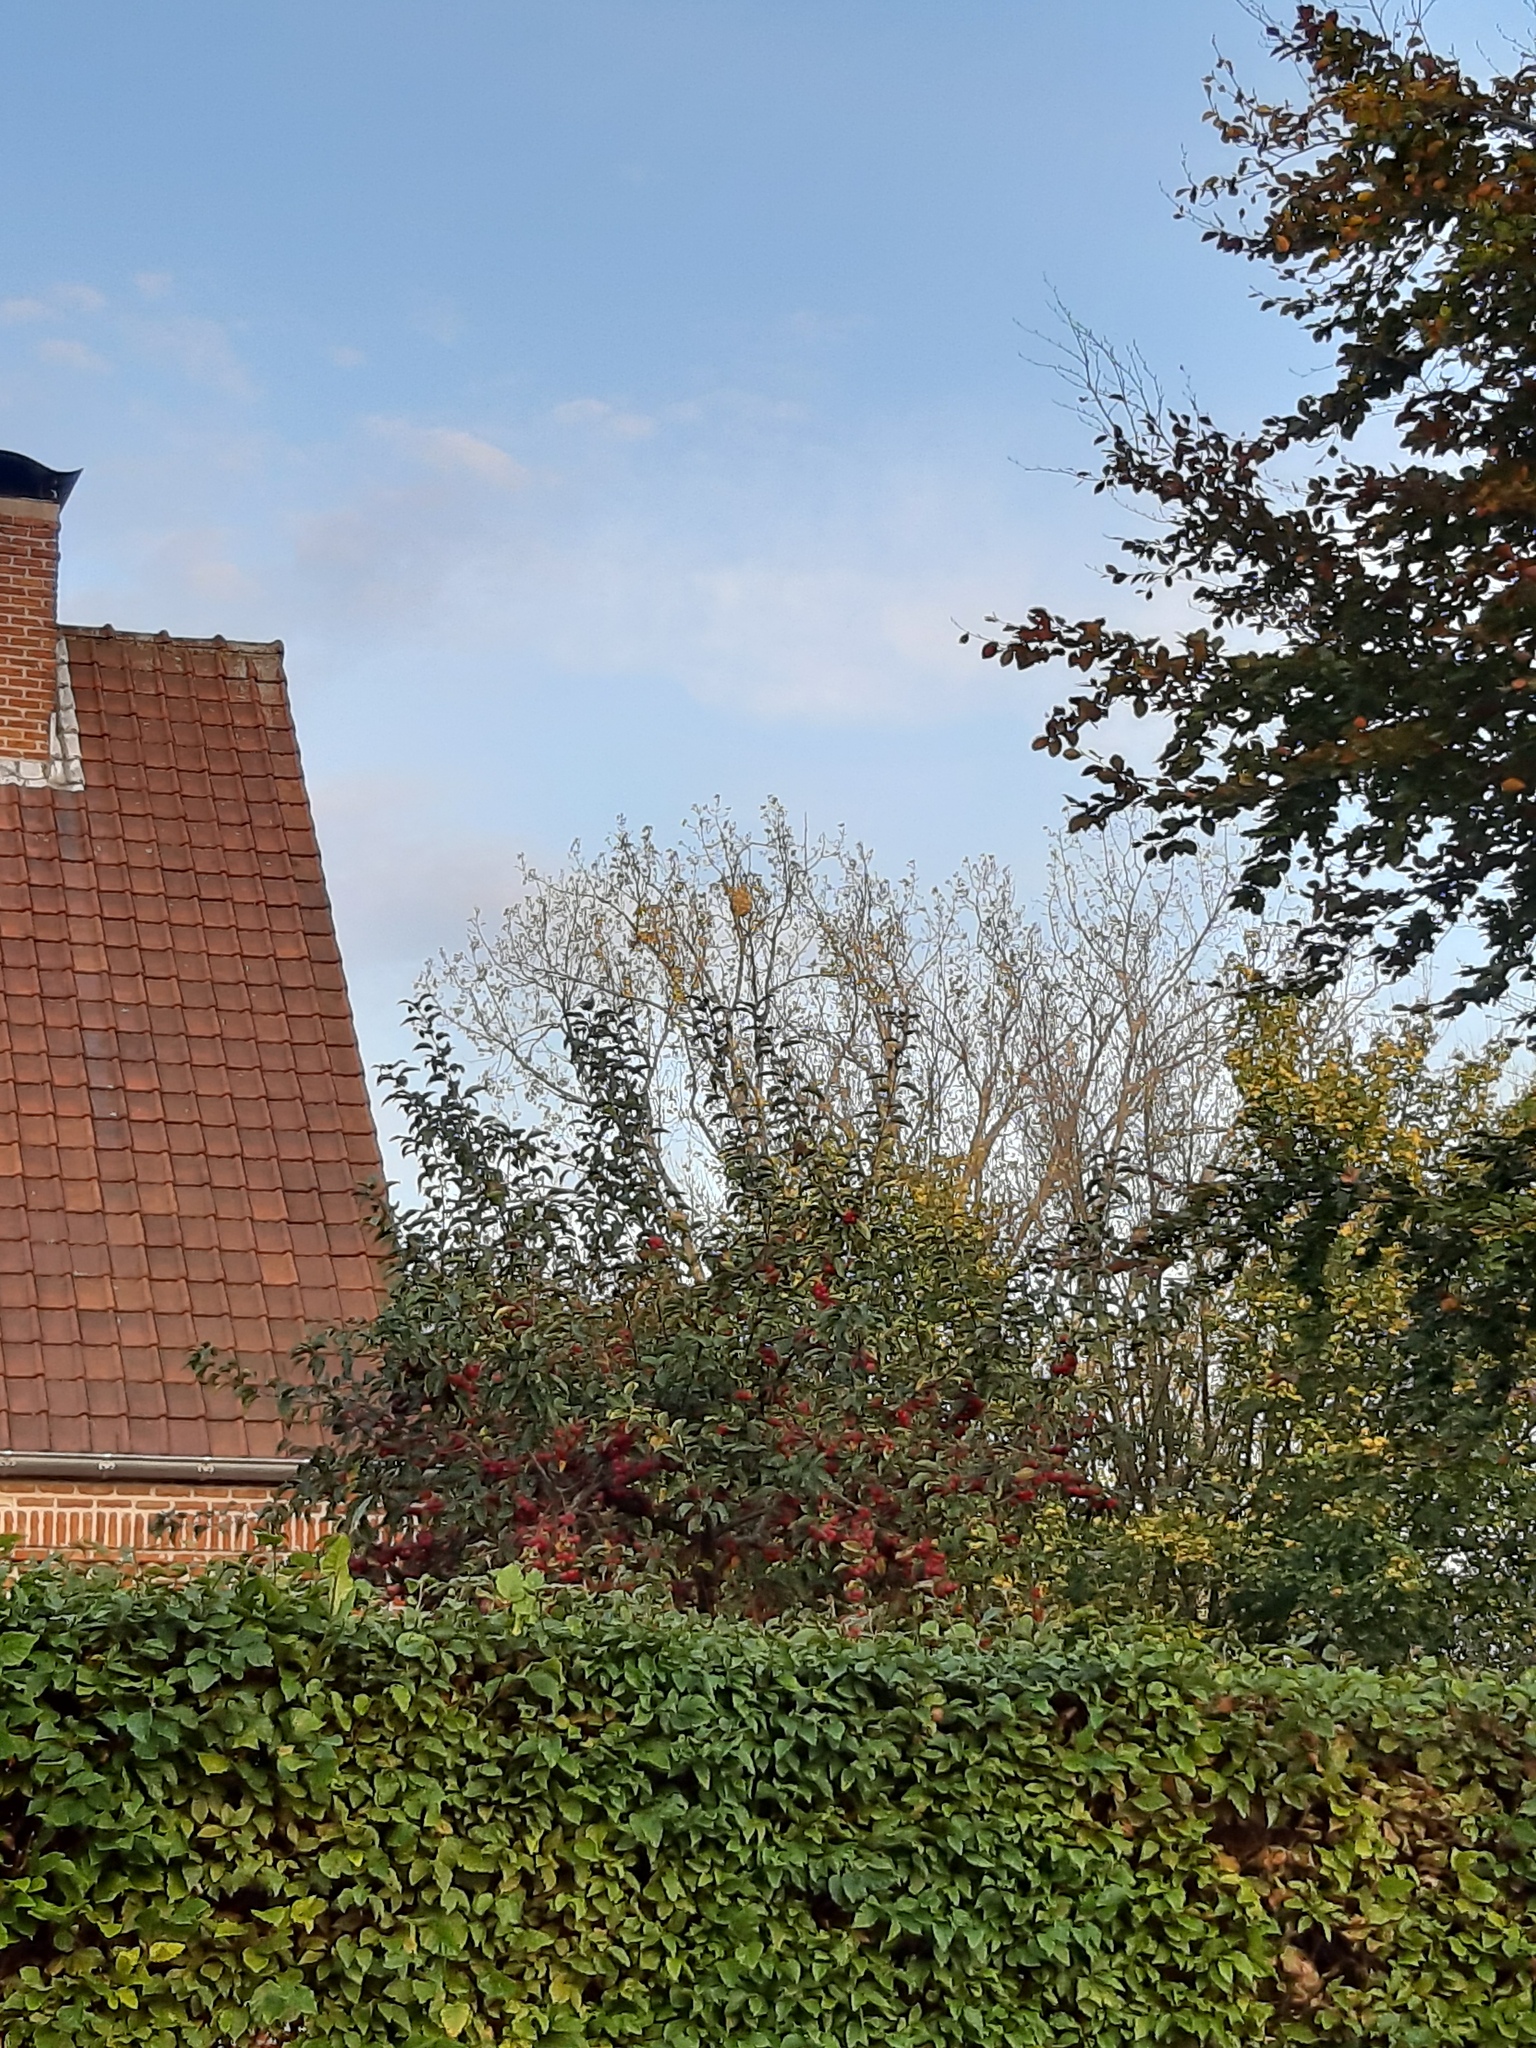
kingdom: Animalia
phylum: Arthropoda
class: Insecta
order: Hymenoptera
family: Vespidae
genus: Vespa
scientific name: Vespa velutina
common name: Asian hornet
